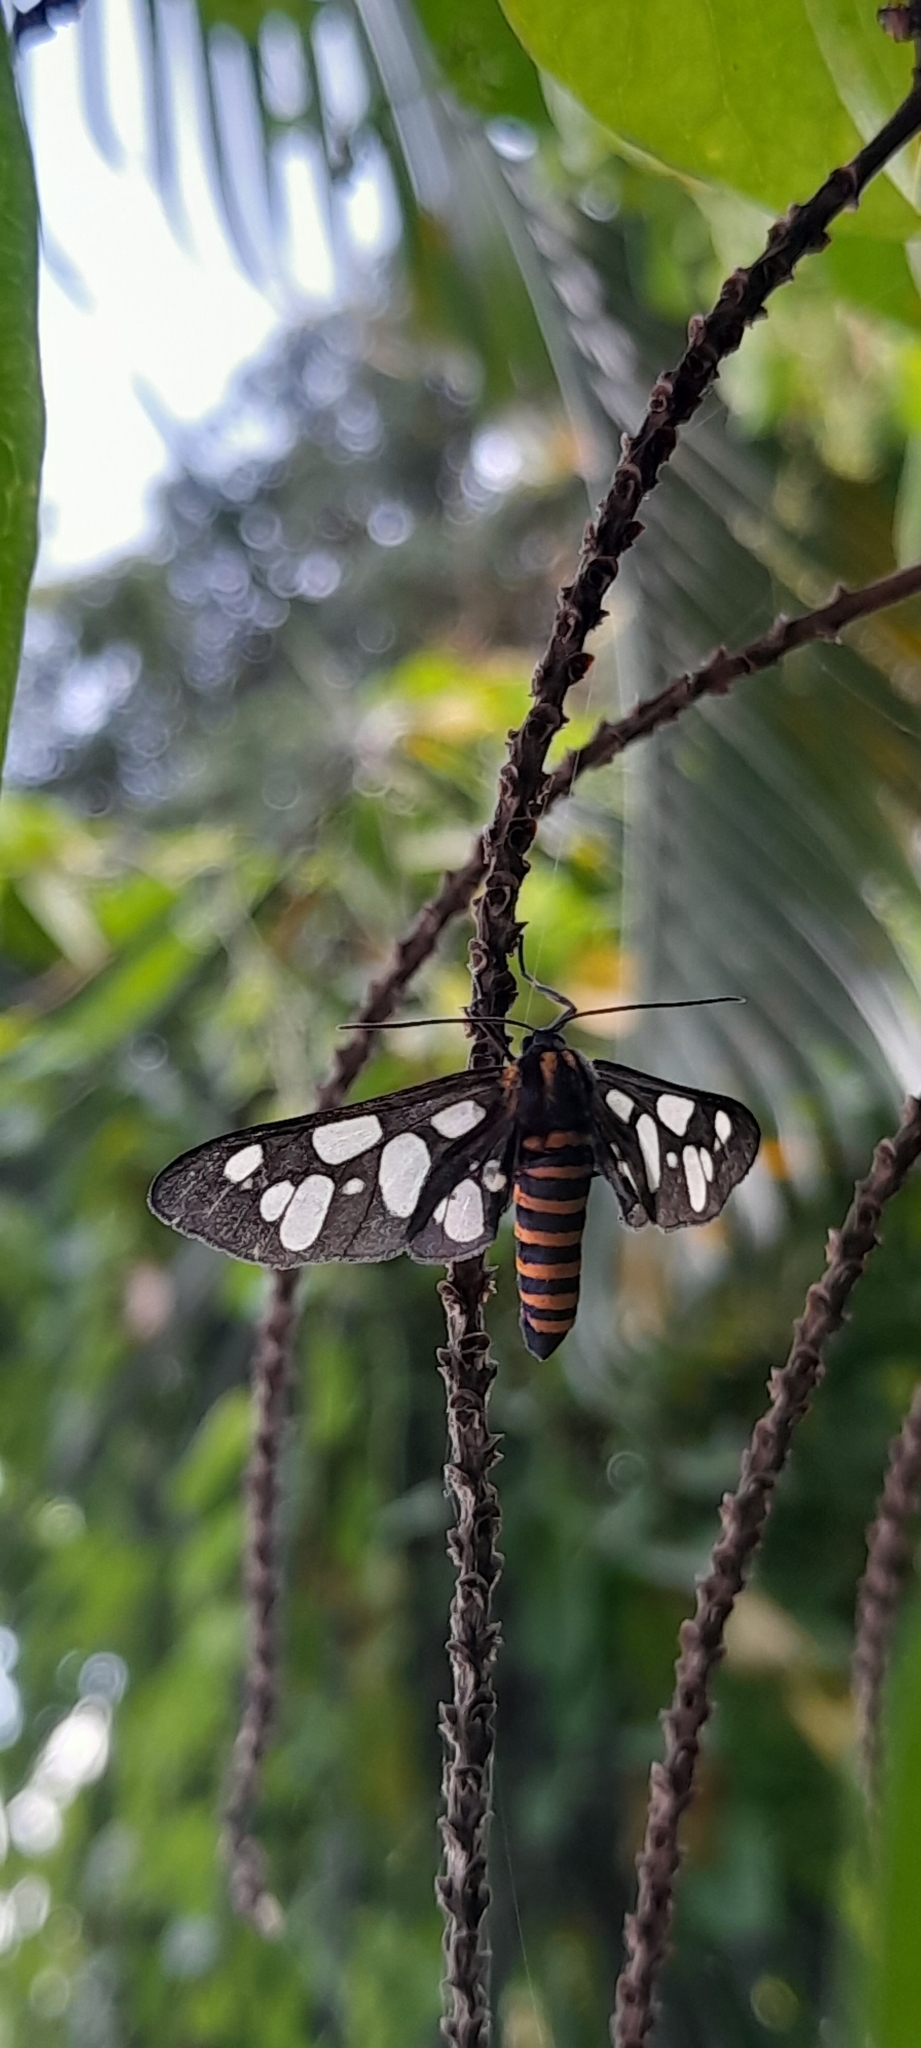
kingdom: Animalia
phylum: Arthropoda
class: Insecta
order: Lepidoptera
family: Erebidae
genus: Amata
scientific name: Amata passalis
